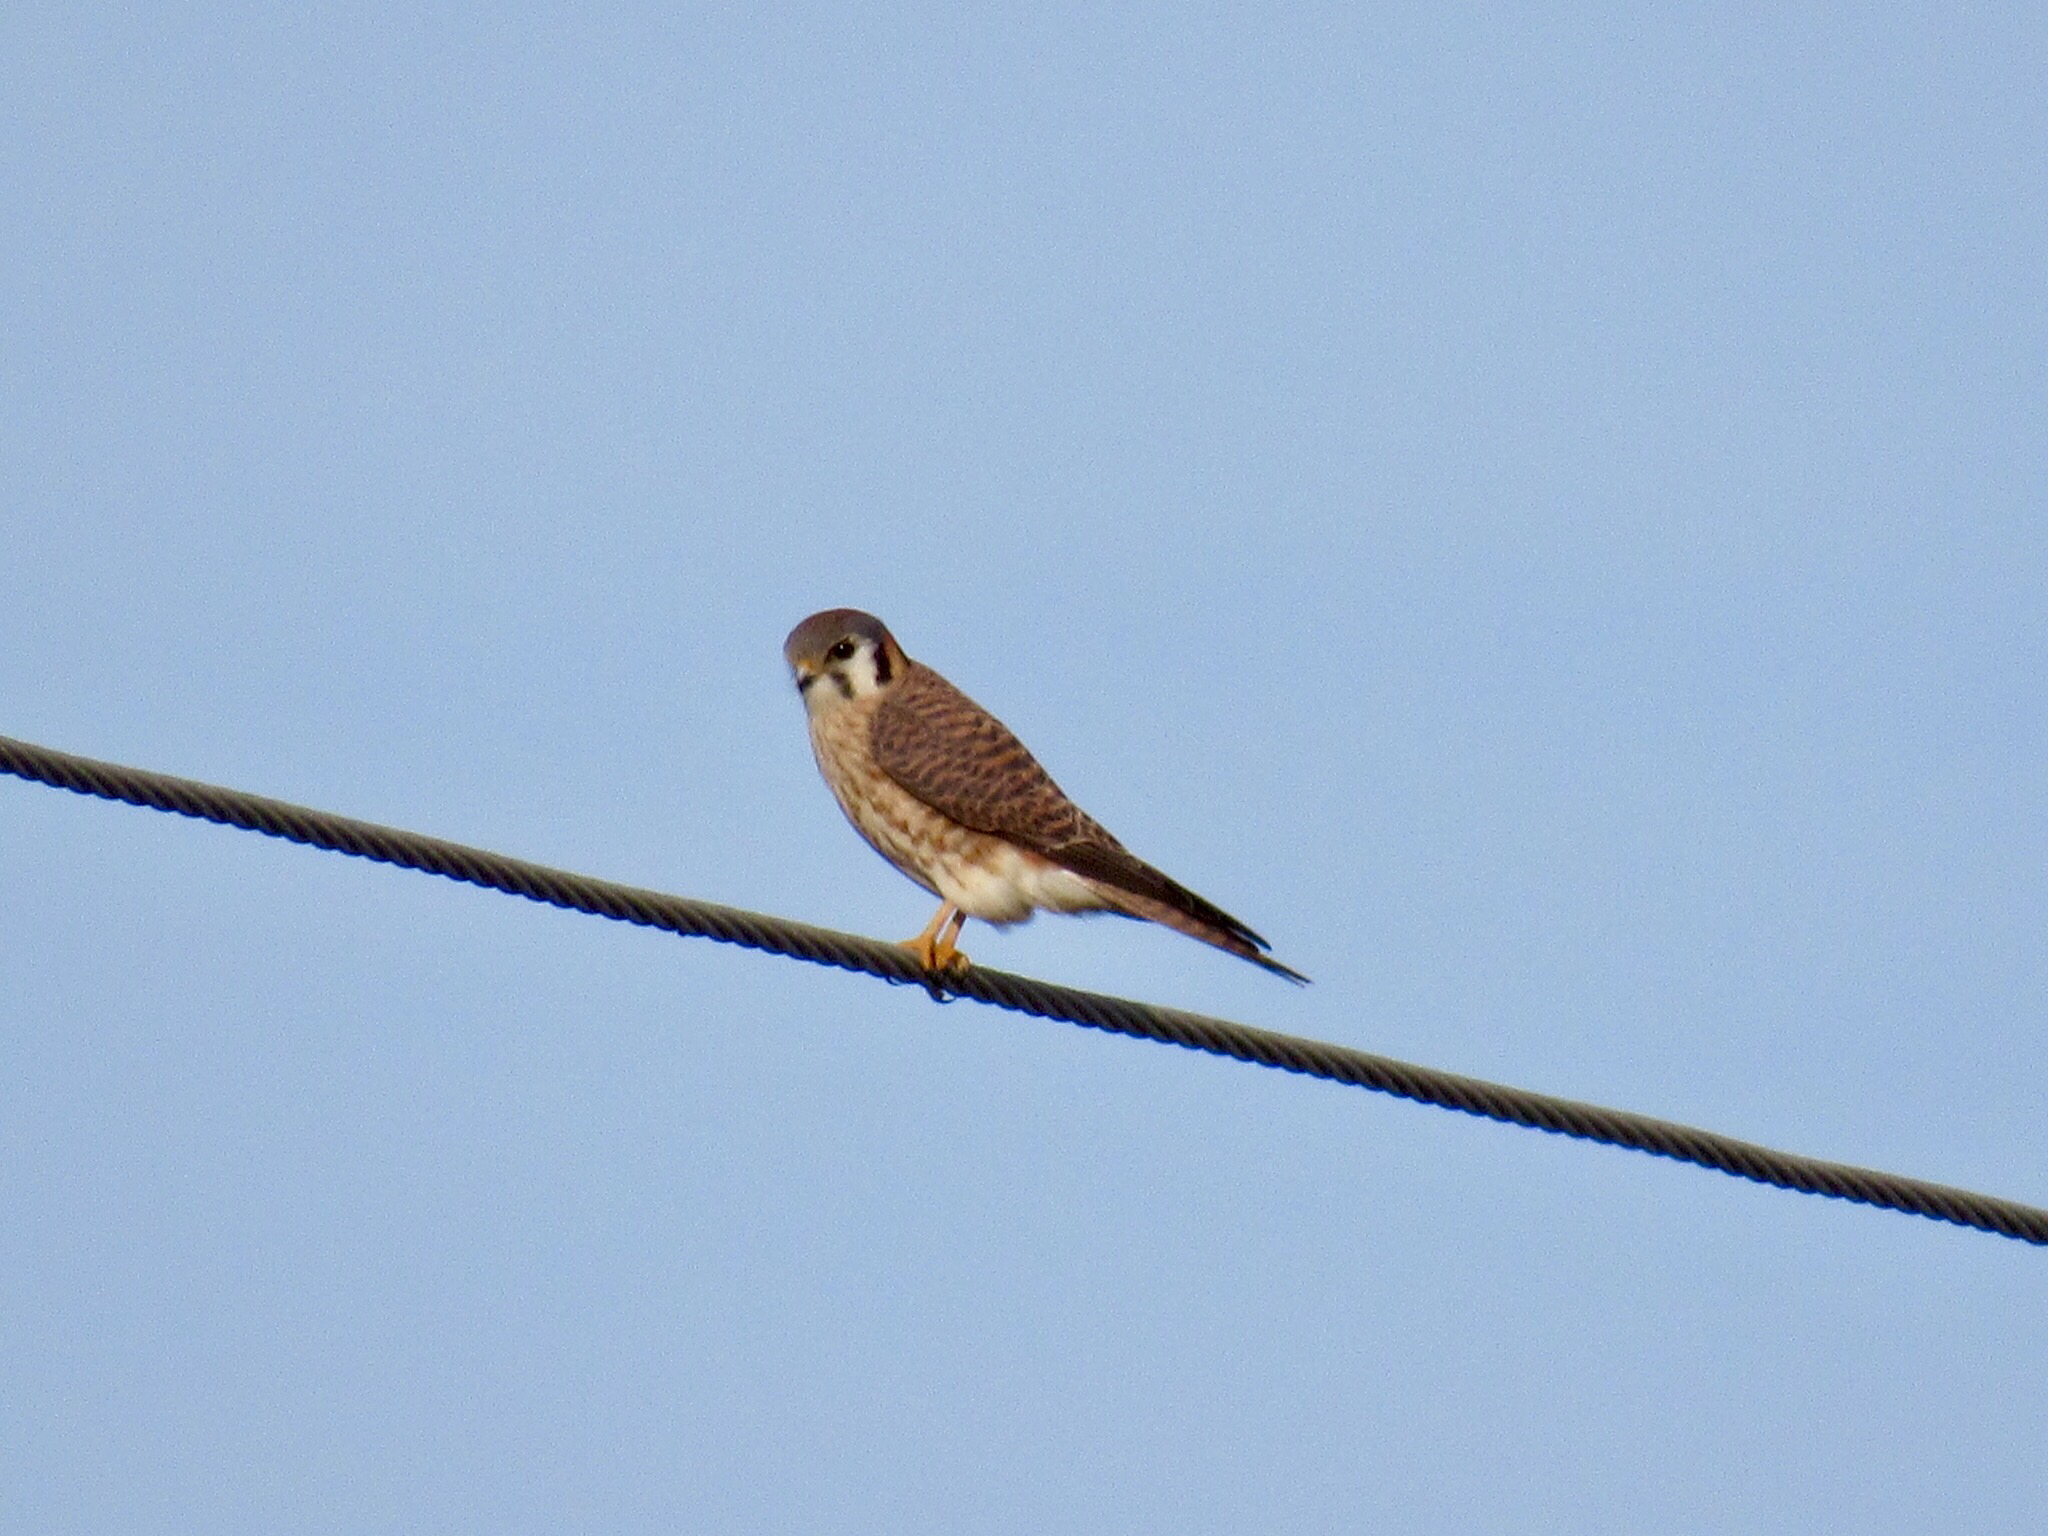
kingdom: Animalia
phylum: Chordata
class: Aves
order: Falconiformes
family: Falconidae
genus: Falco
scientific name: Falco sparverius
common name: American kestrel
